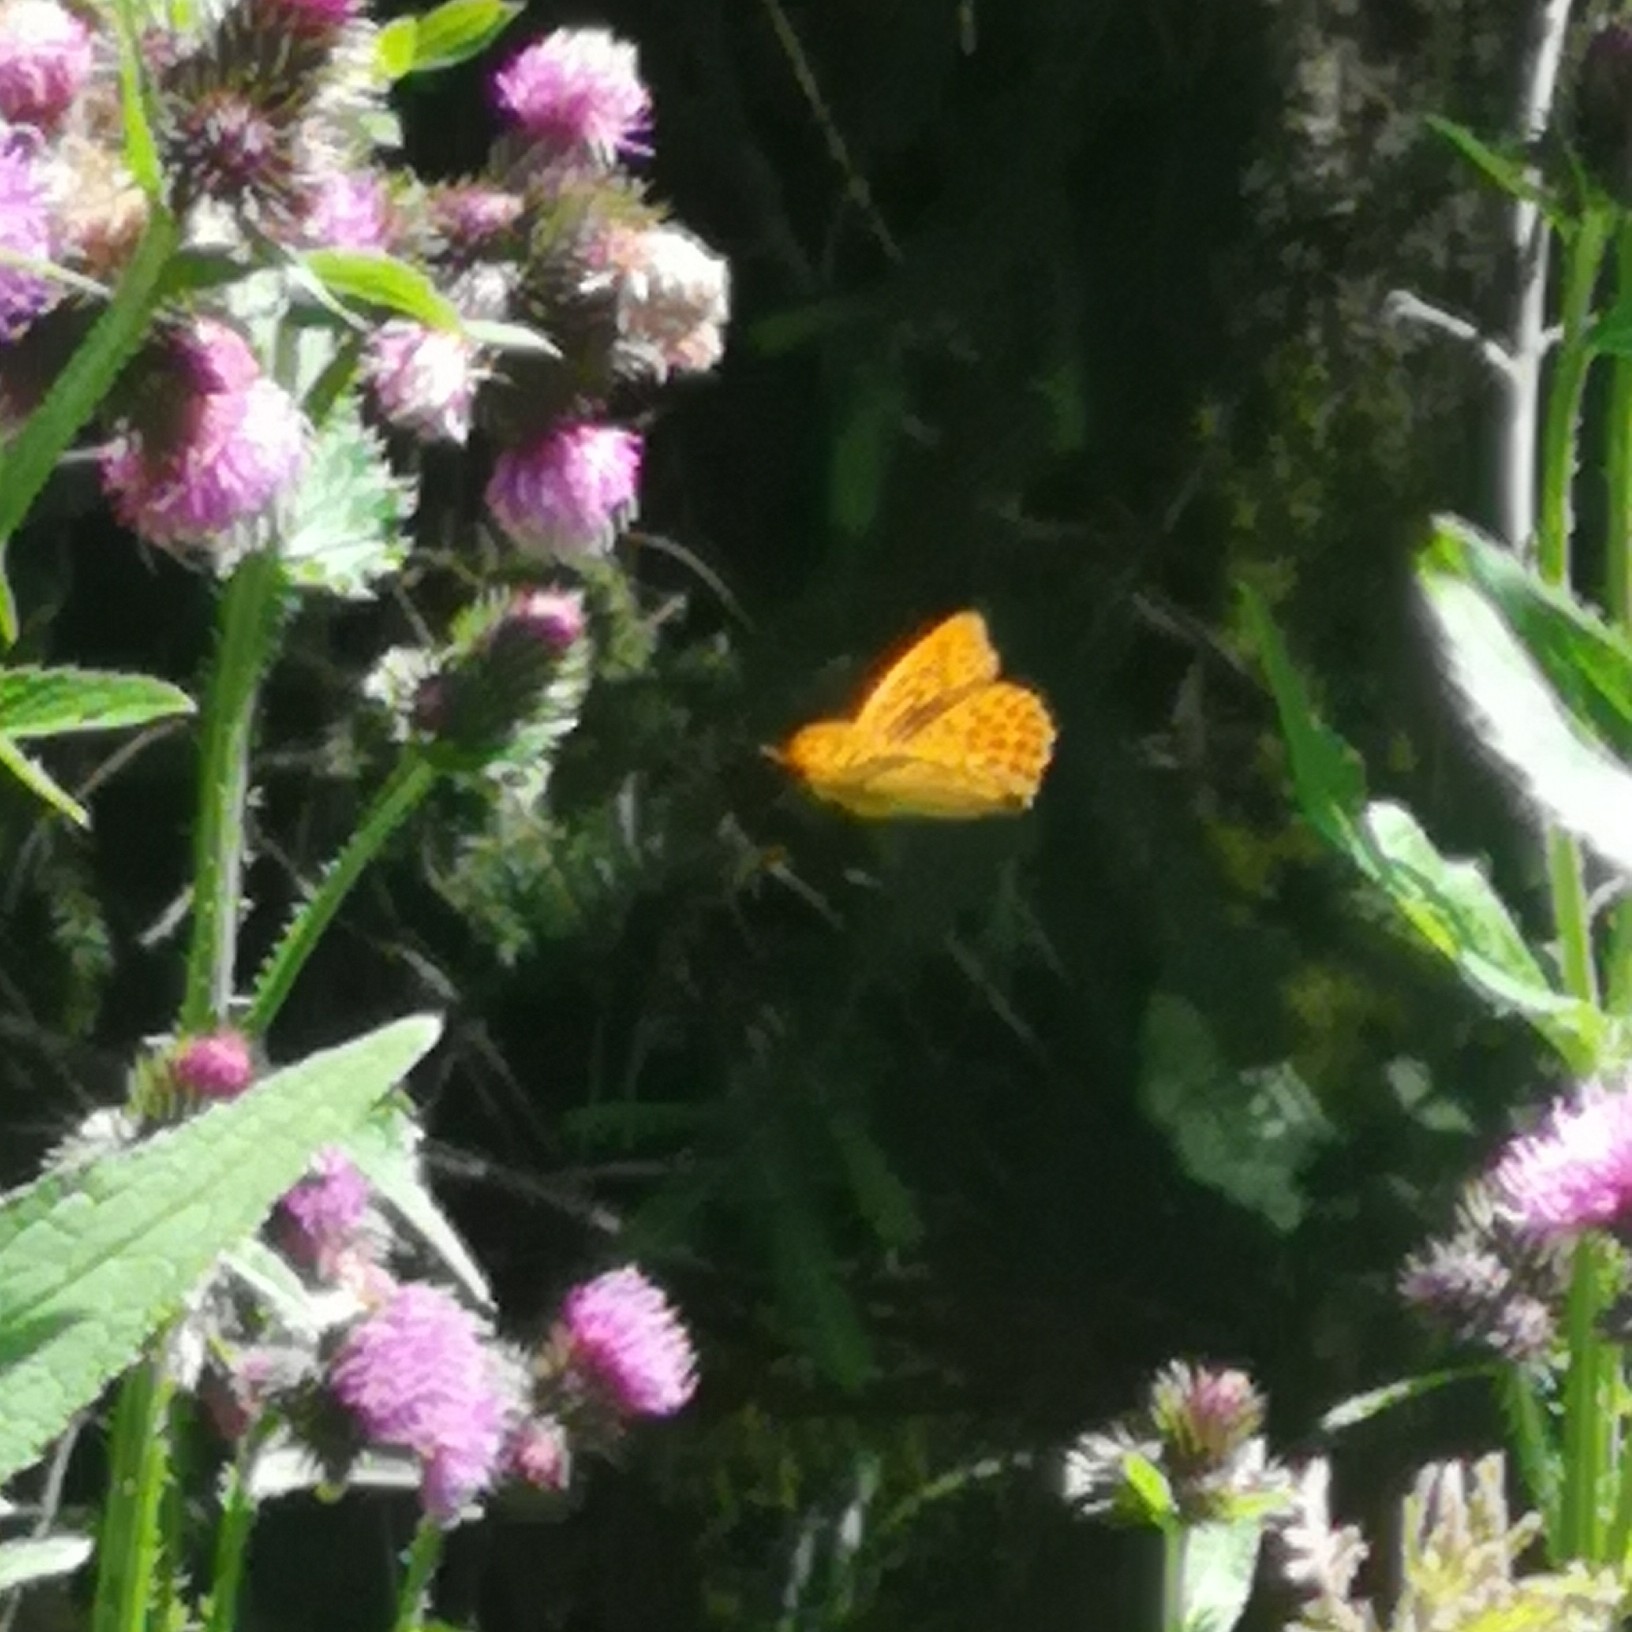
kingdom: Animalia
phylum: Arthropoda
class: Insecta
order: Lepidoptera
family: Nymphalidae
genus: Argynnis
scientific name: Argynnis paphia
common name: Silver-washed fritillary
